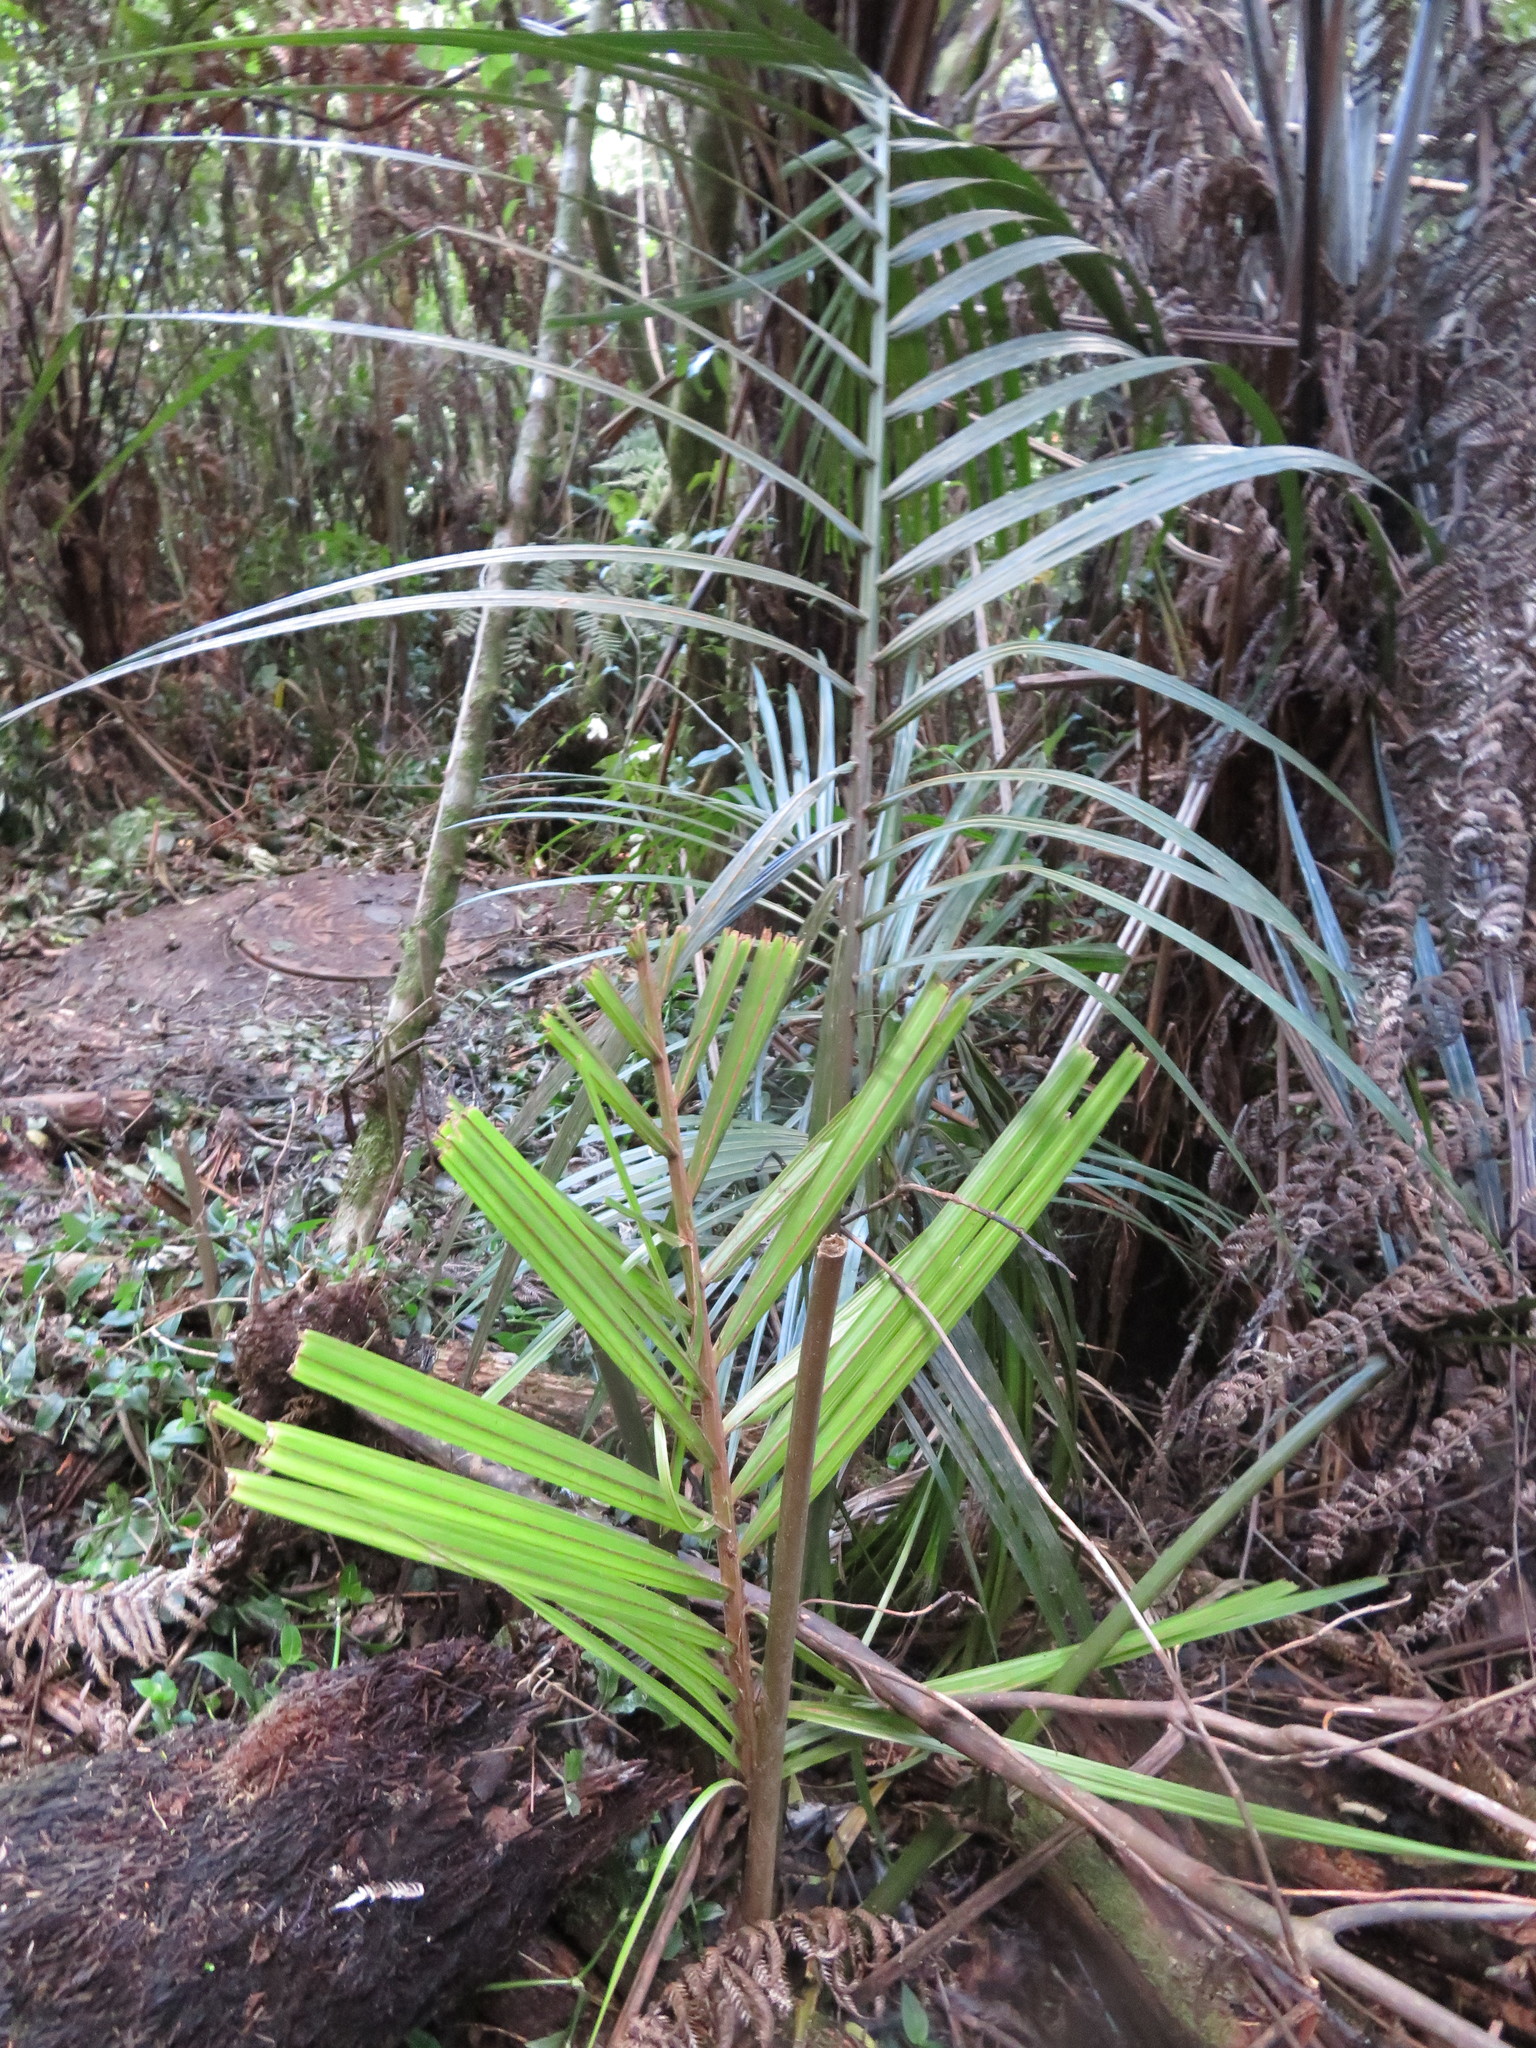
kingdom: Plantae
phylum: Tracheophyta
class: Liliopsida
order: Arecales
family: Arecaceae
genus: Rhopalostylis
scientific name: Rhopalostylis sapida
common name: Feather-duster palm
